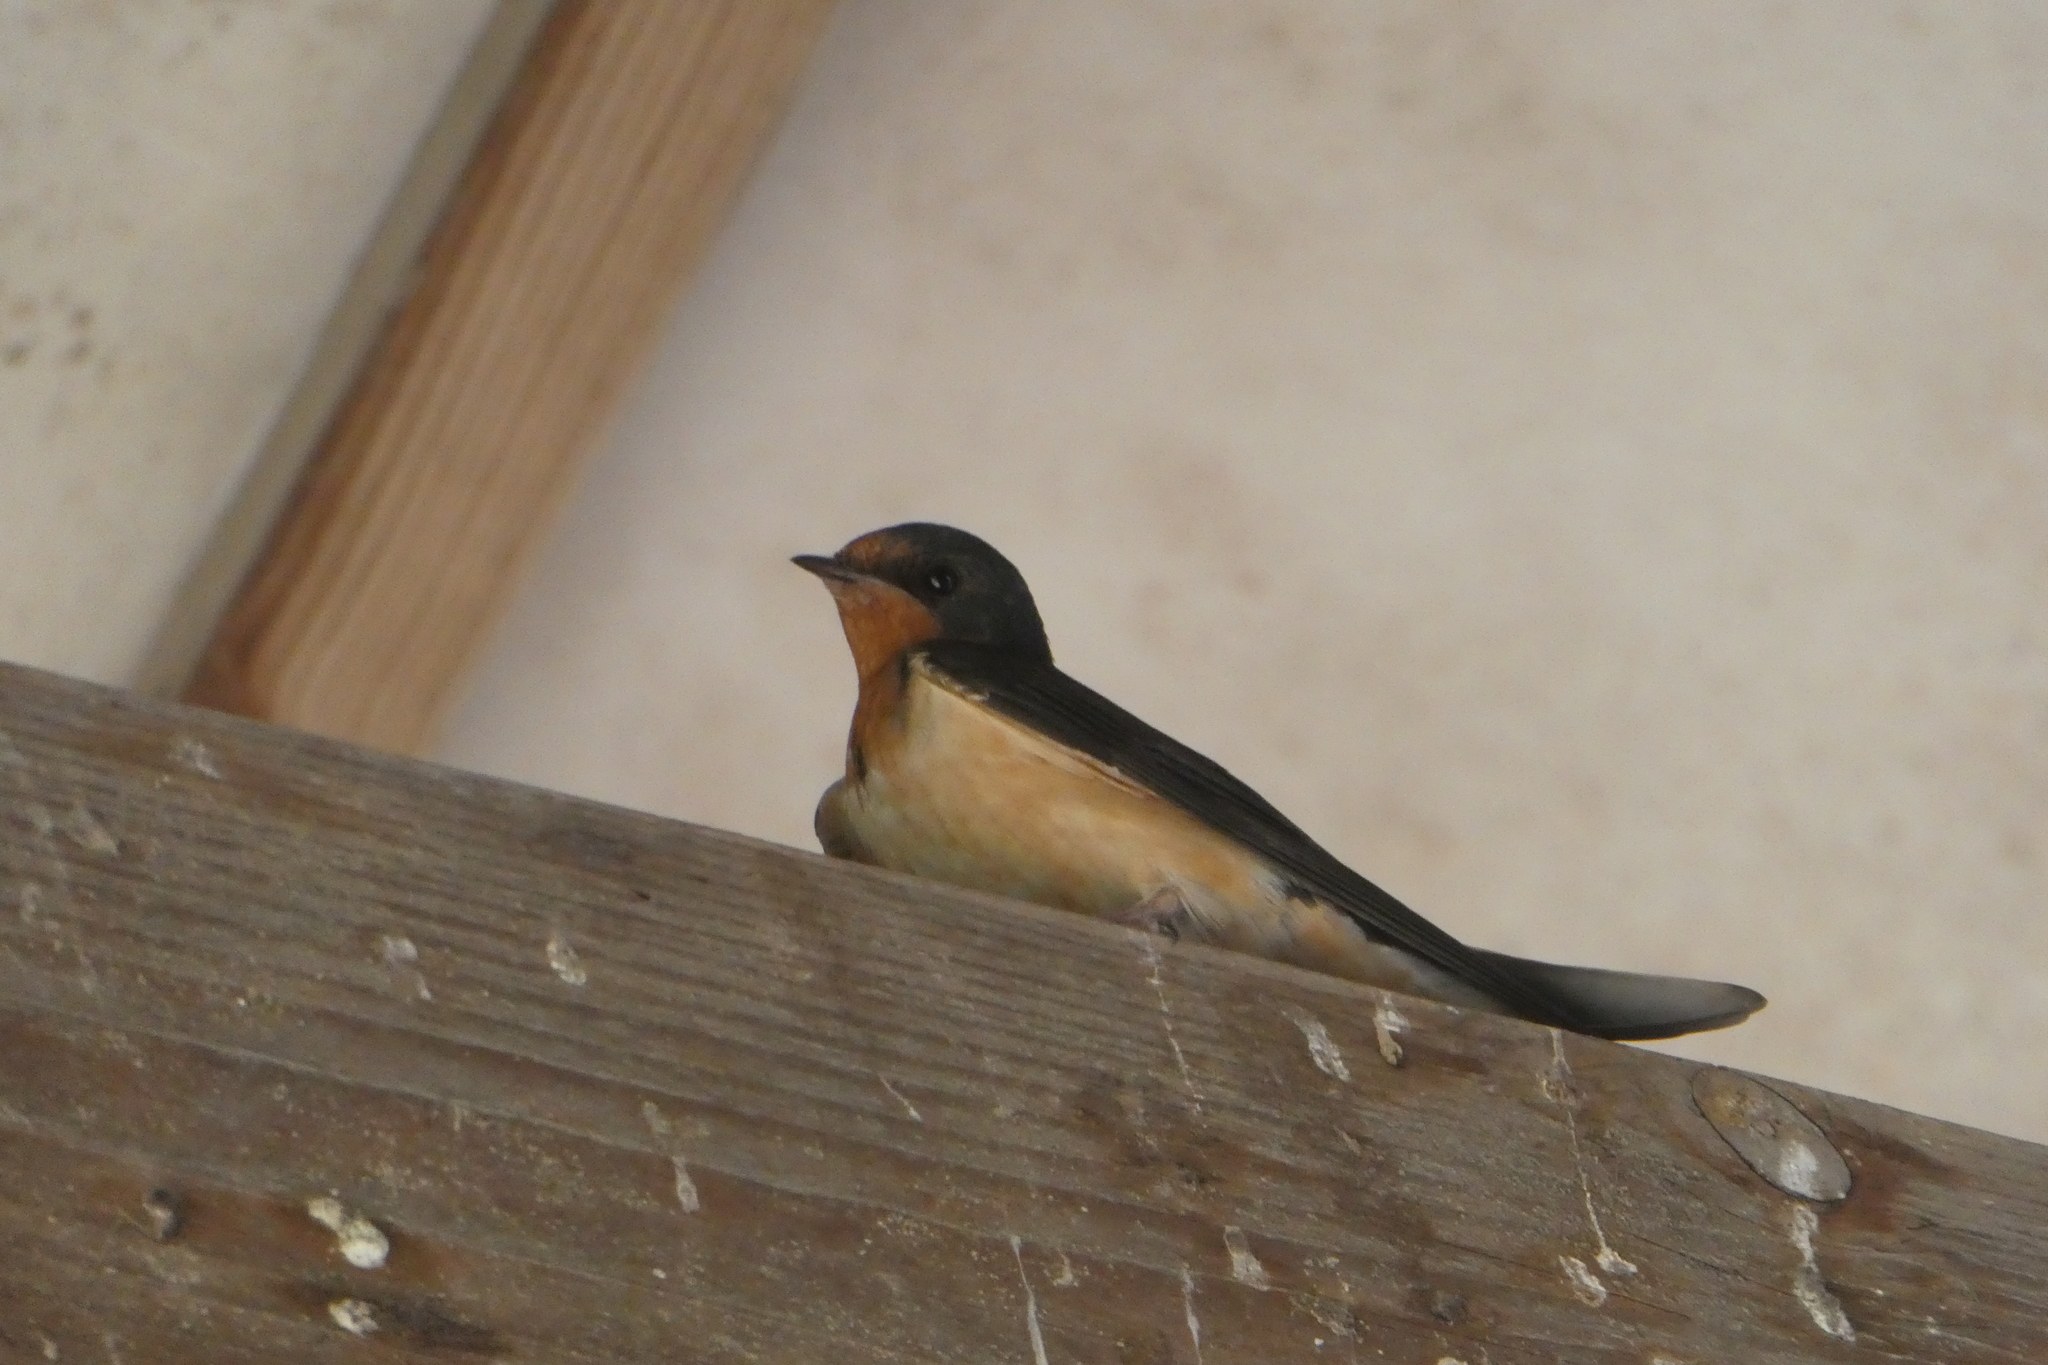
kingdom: Animalia
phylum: Chordata
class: Aves
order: Passeriformes
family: Hirundinidae
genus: Hirundo
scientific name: Hirundo rustica
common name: Barn swallow
